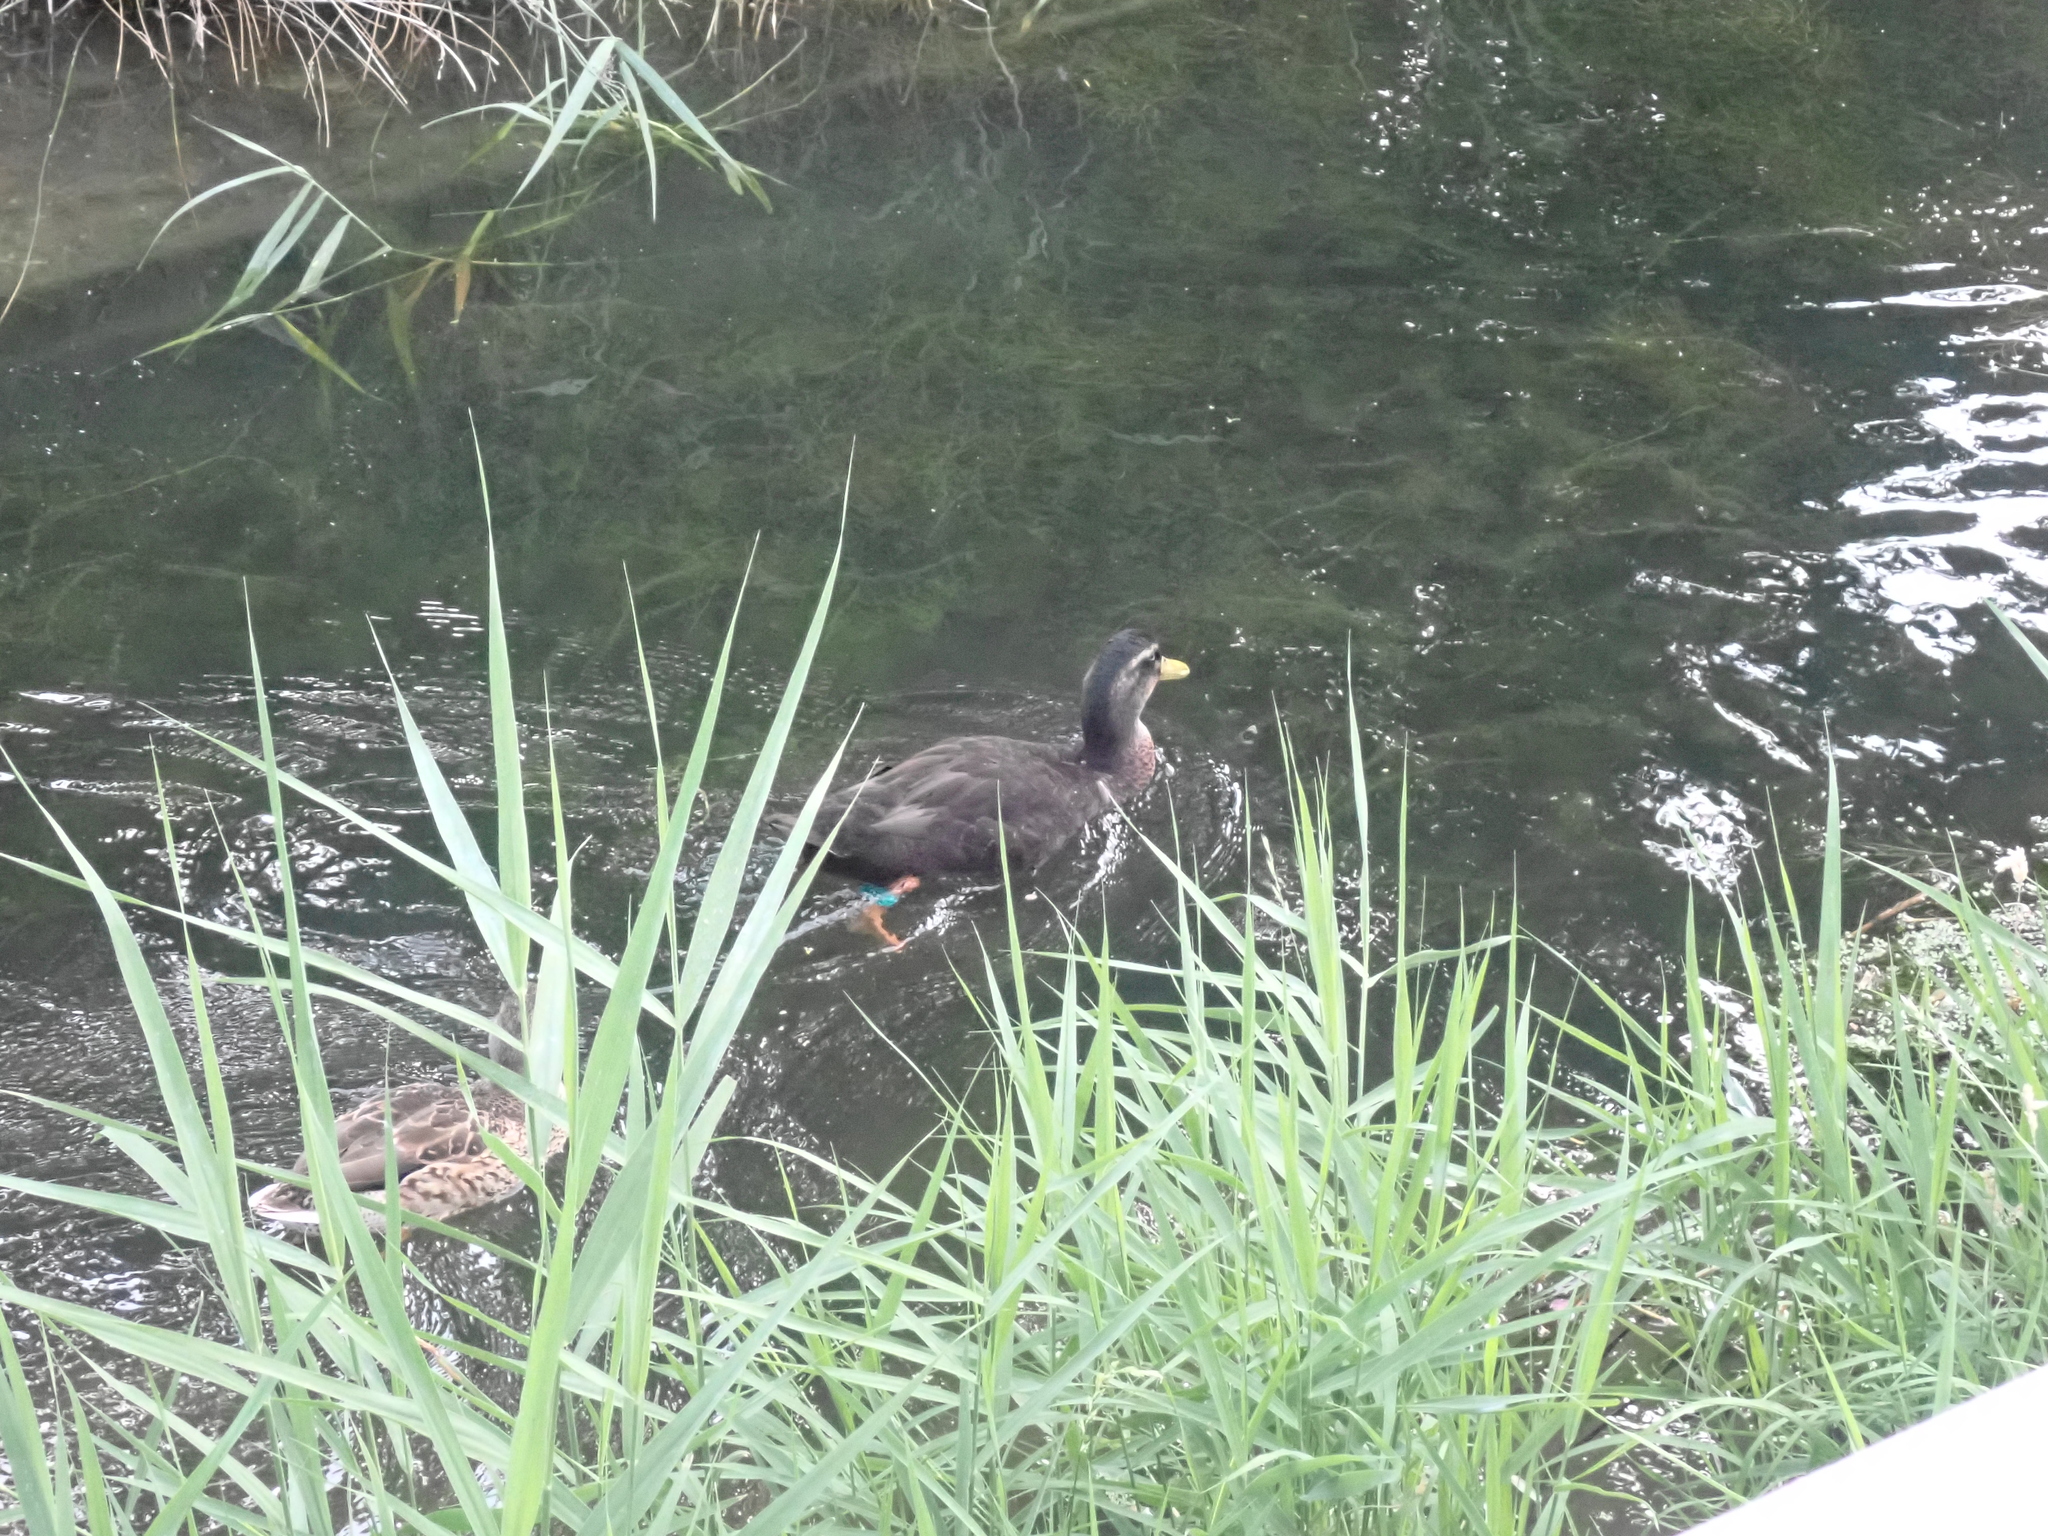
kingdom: Animalia
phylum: Chordata
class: Aves
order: Anseriformes
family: Anatidae
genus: Anas
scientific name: Anas platyrhynchos
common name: Mallard
